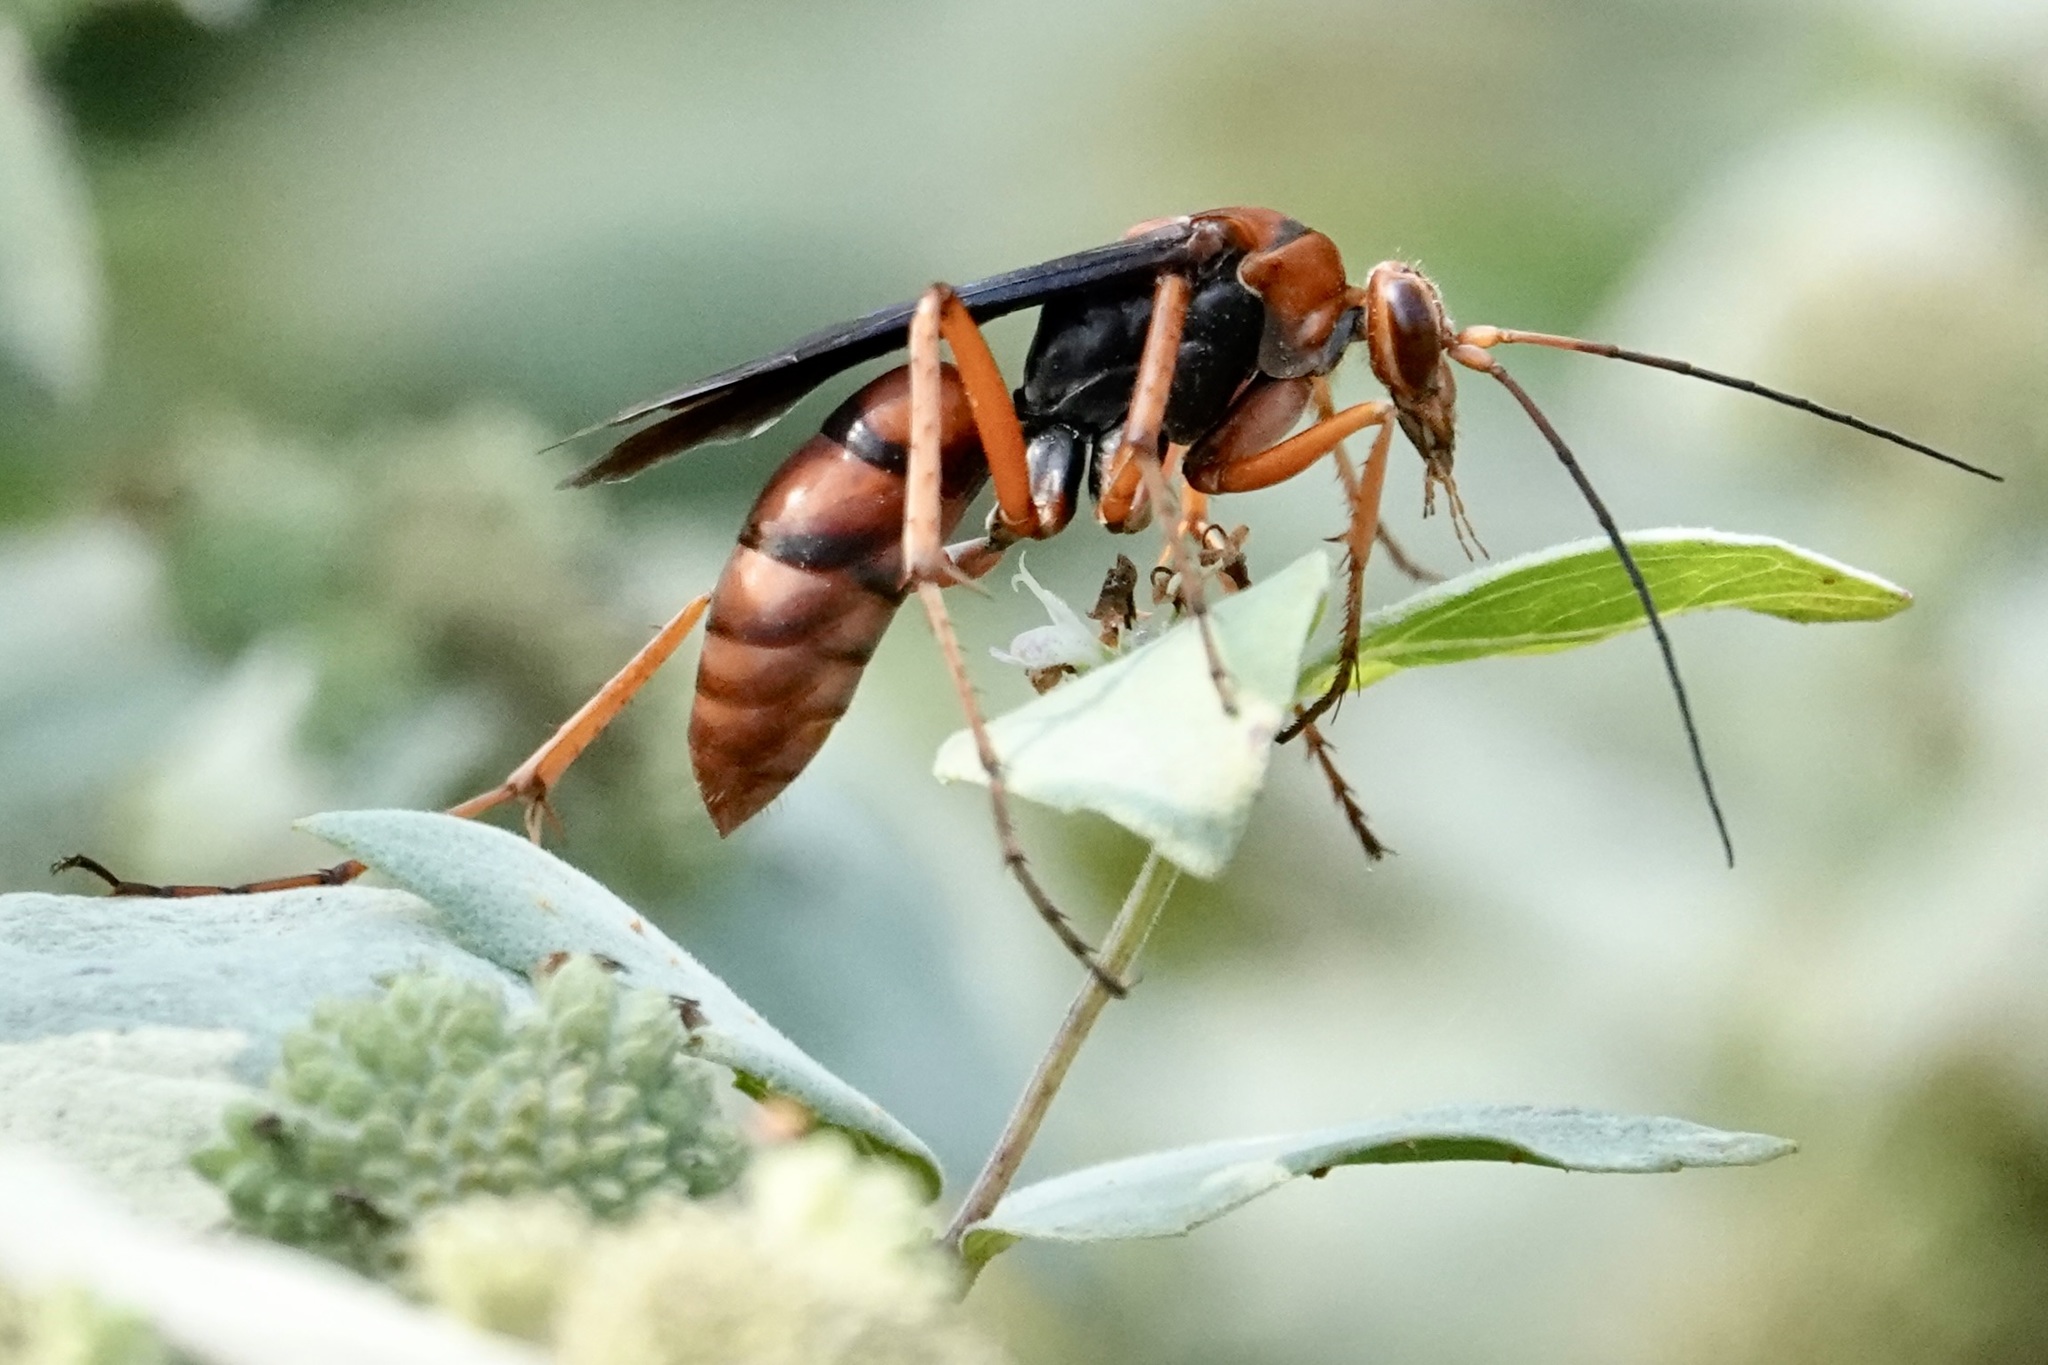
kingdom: Animalia
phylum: Arthropoda
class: Insecta
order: Hymenoptera
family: Pompilidae
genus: Tachypompilus
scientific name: Tachypompilus ferrugineus
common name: Rusty spider wasp
